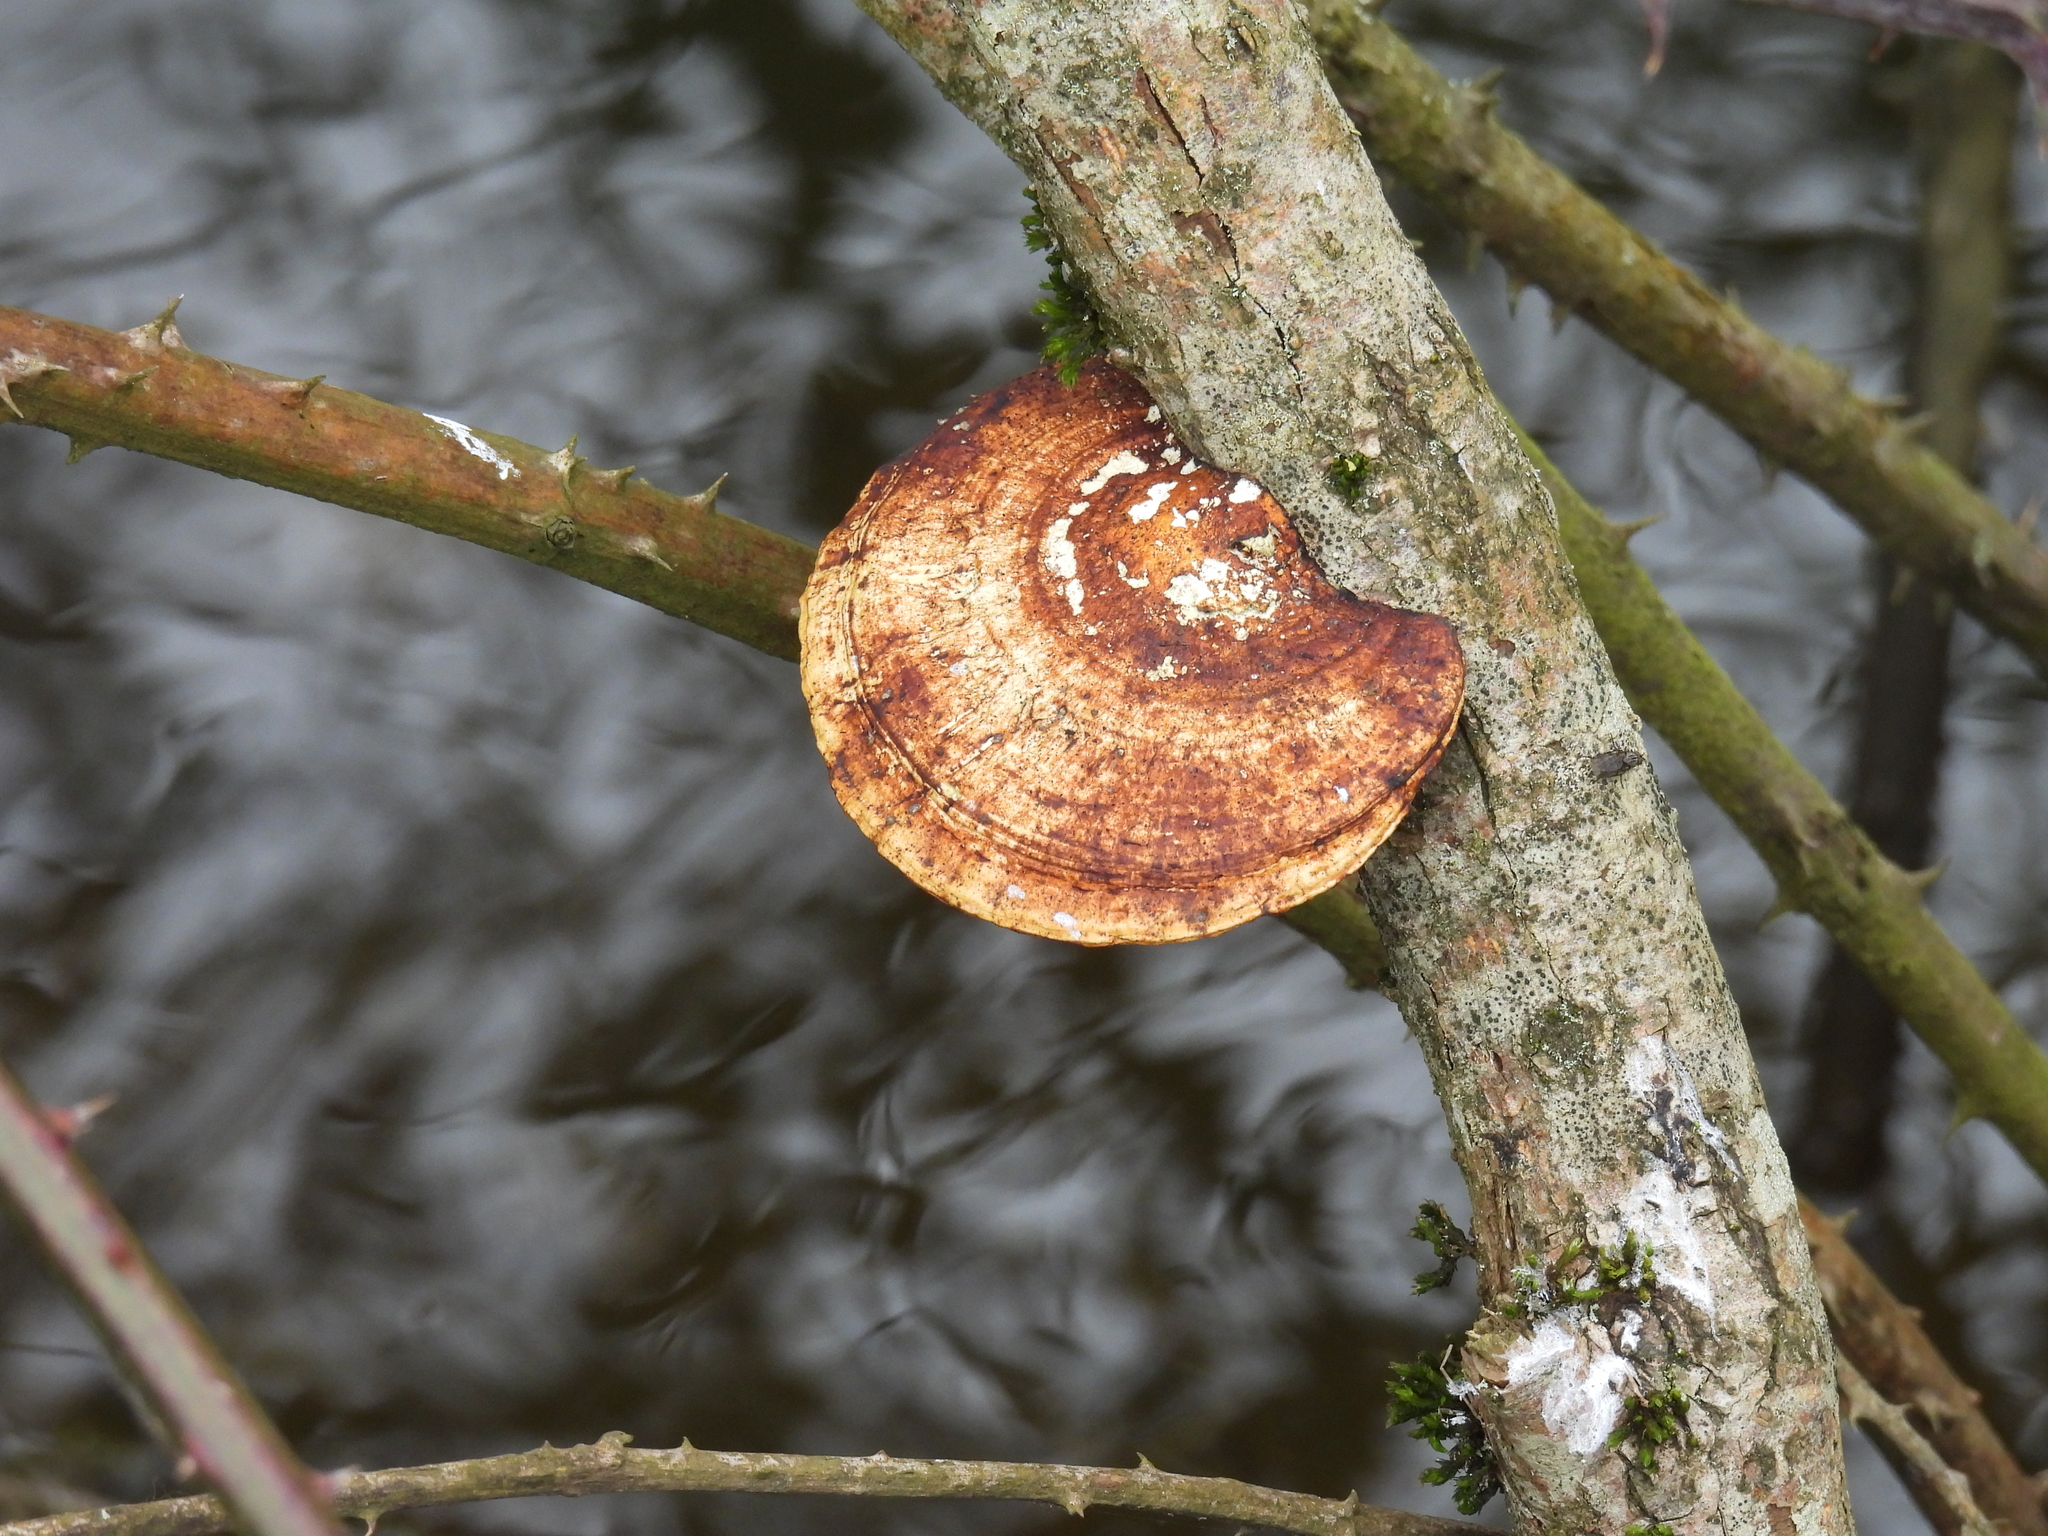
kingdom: Fungi
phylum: Basidiomycota
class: Agaricomycetes
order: Polyporales
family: Polyporaceae
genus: Daedaleopsis
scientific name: Daedaleopsis confragosa
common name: Blushing bracket
